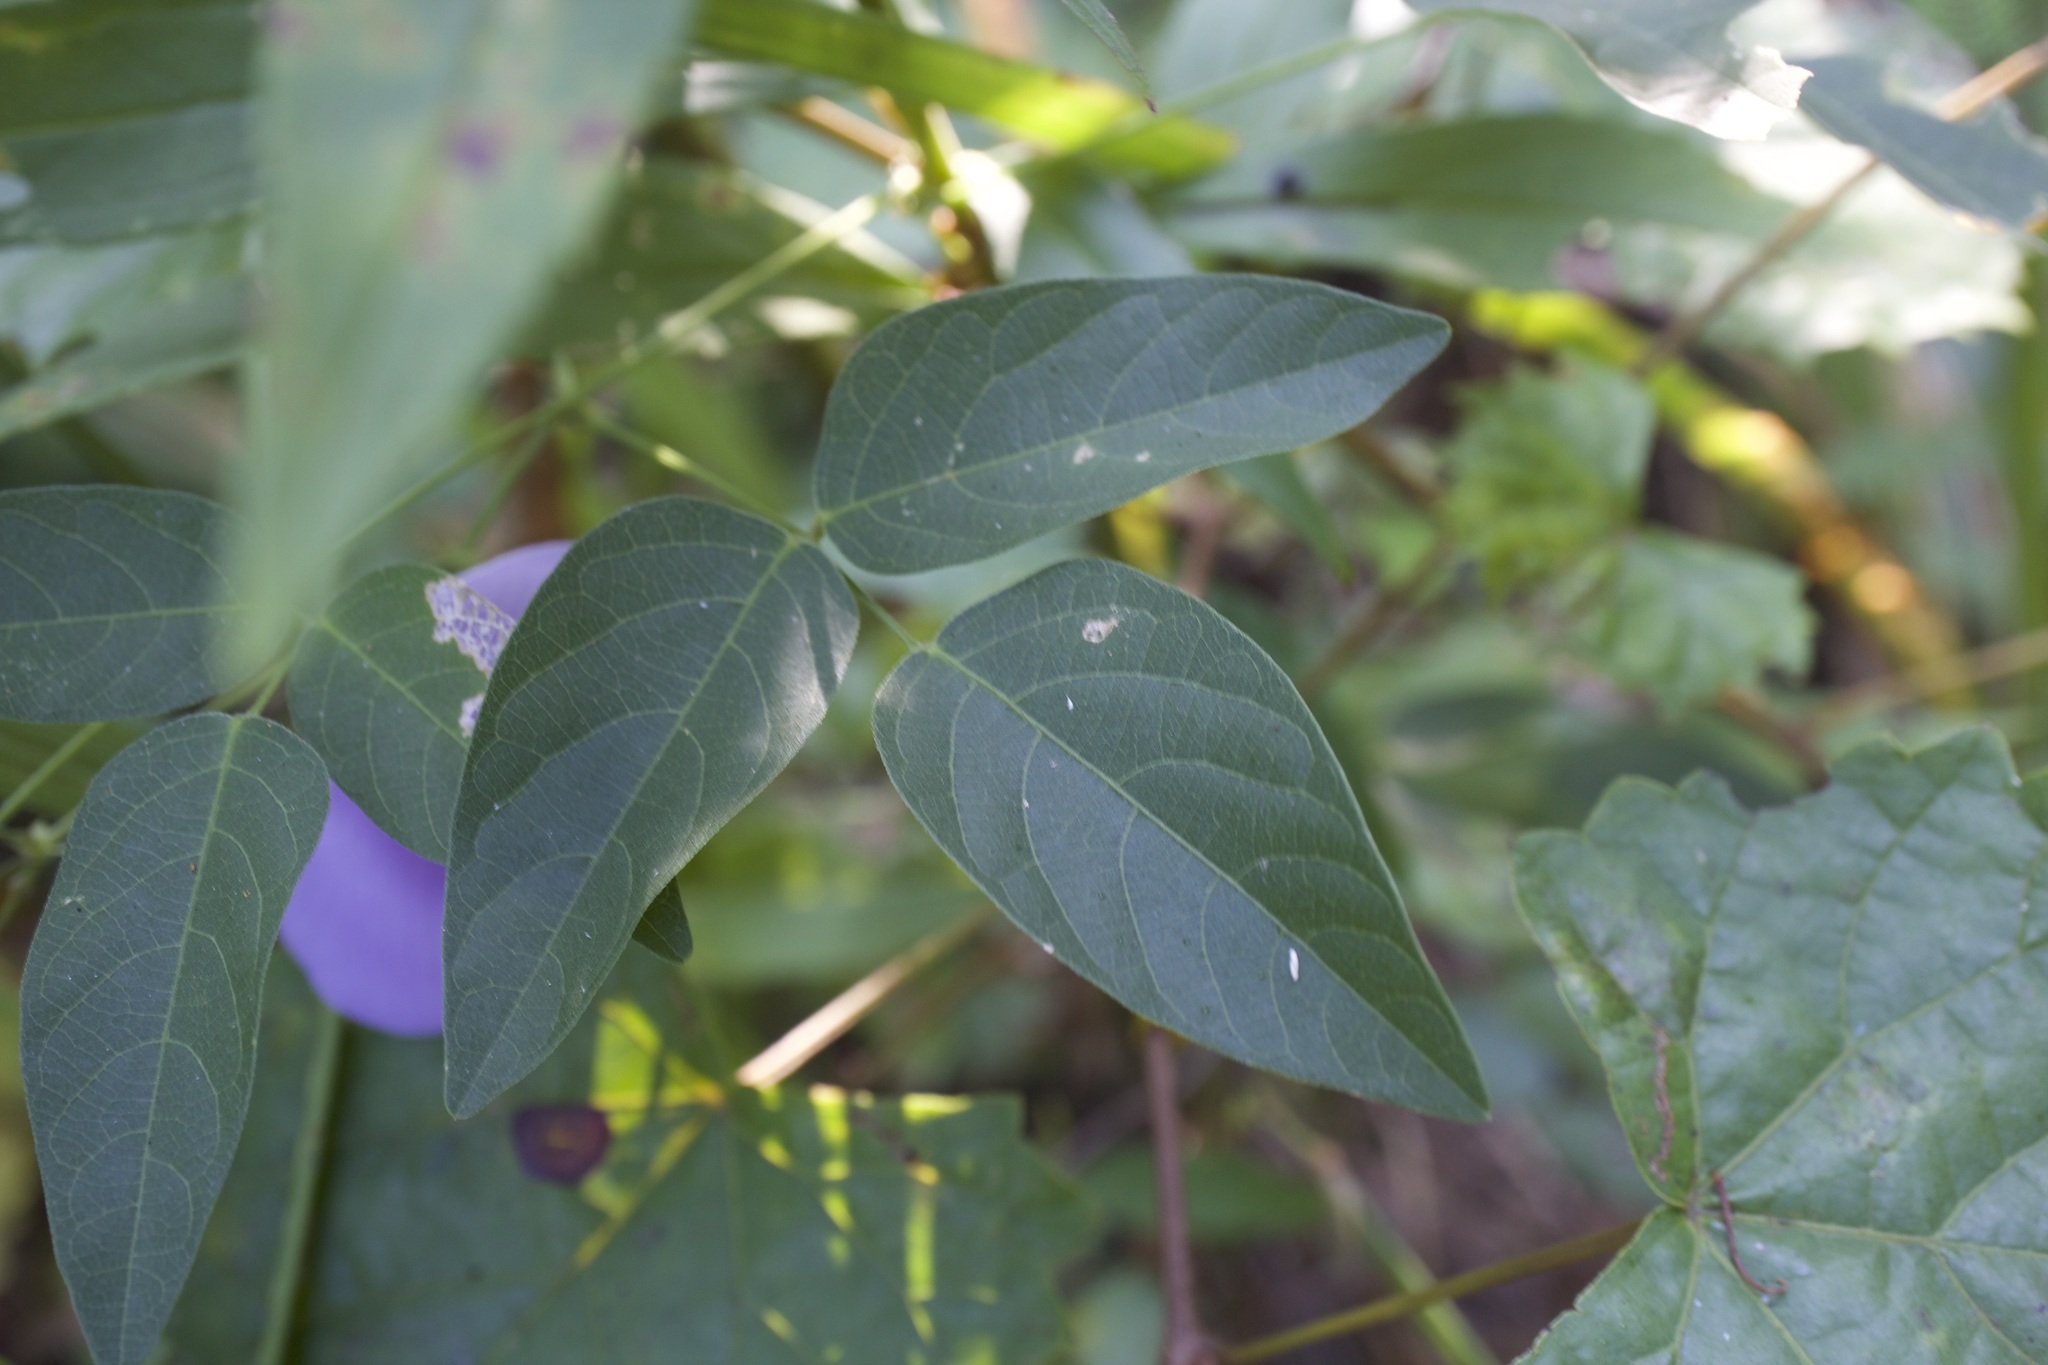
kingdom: Plantae
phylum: Tracheophyta
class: Magnoliopsida
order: Fabales
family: Fabaceae
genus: Centrosema
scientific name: Centrosema virginianum
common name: Butterfly-pea
